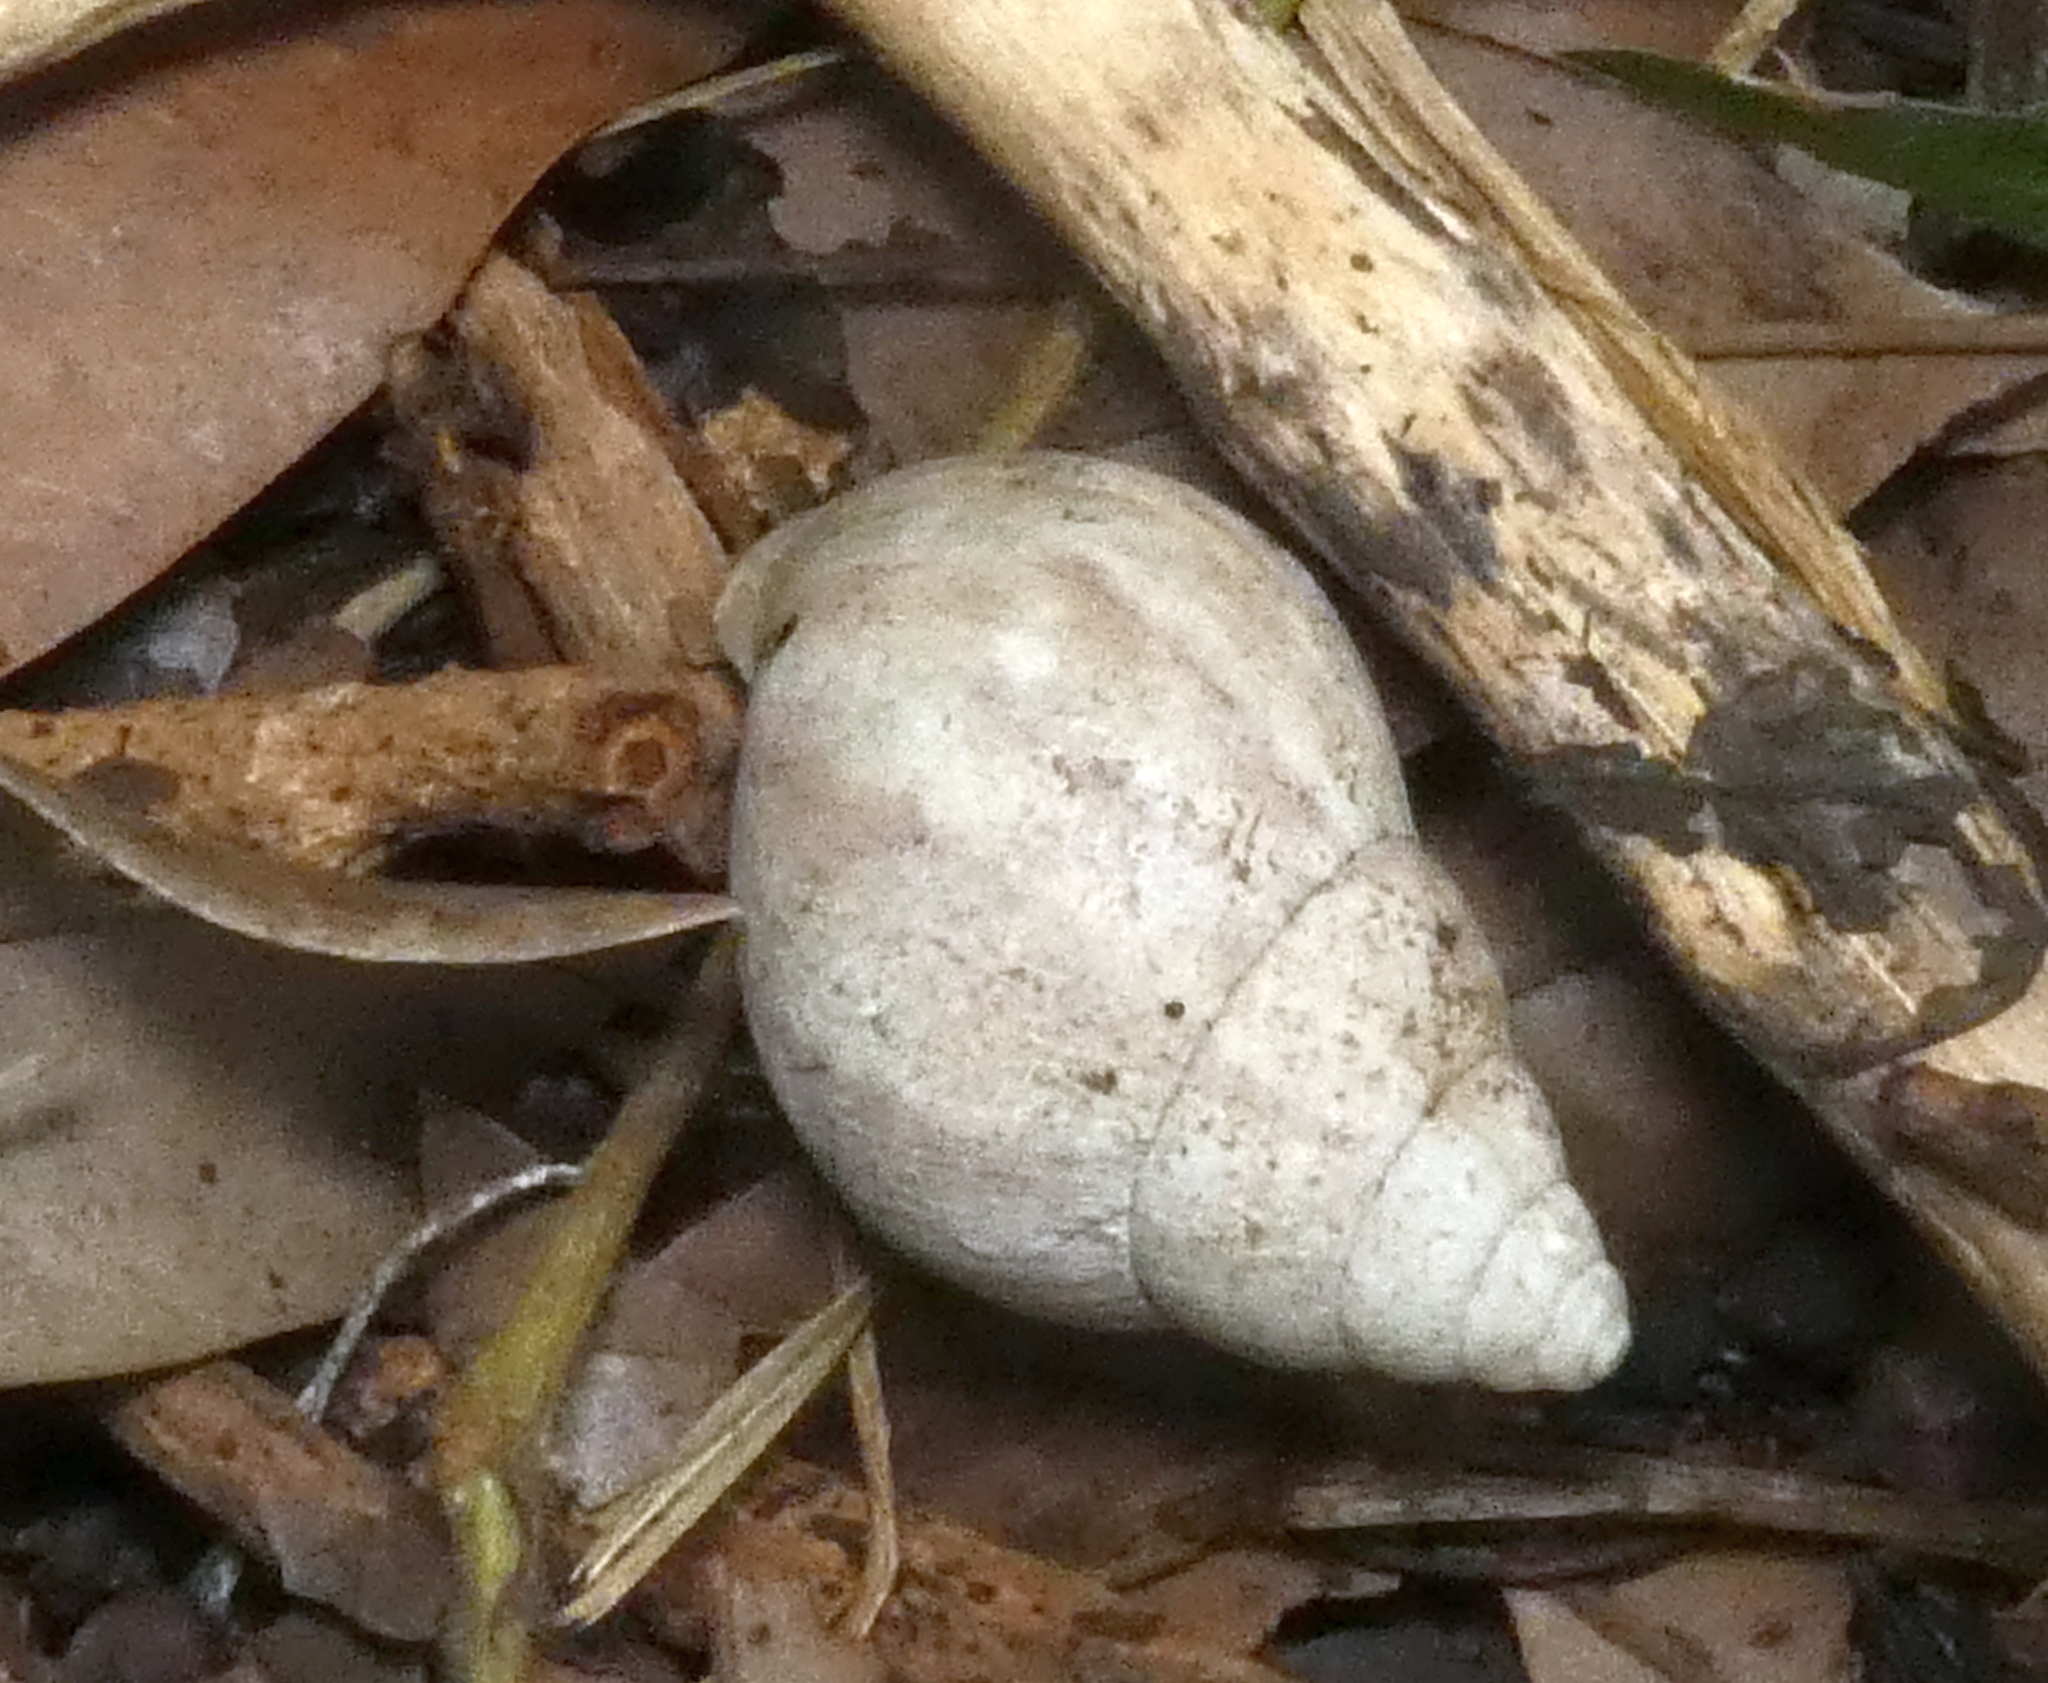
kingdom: Animalia
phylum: Mollusca
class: Gastropoda
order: Stylommatophora
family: Achatinidae
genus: Lissachatina
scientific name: Lissachatina fulica
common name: Giant african snail
